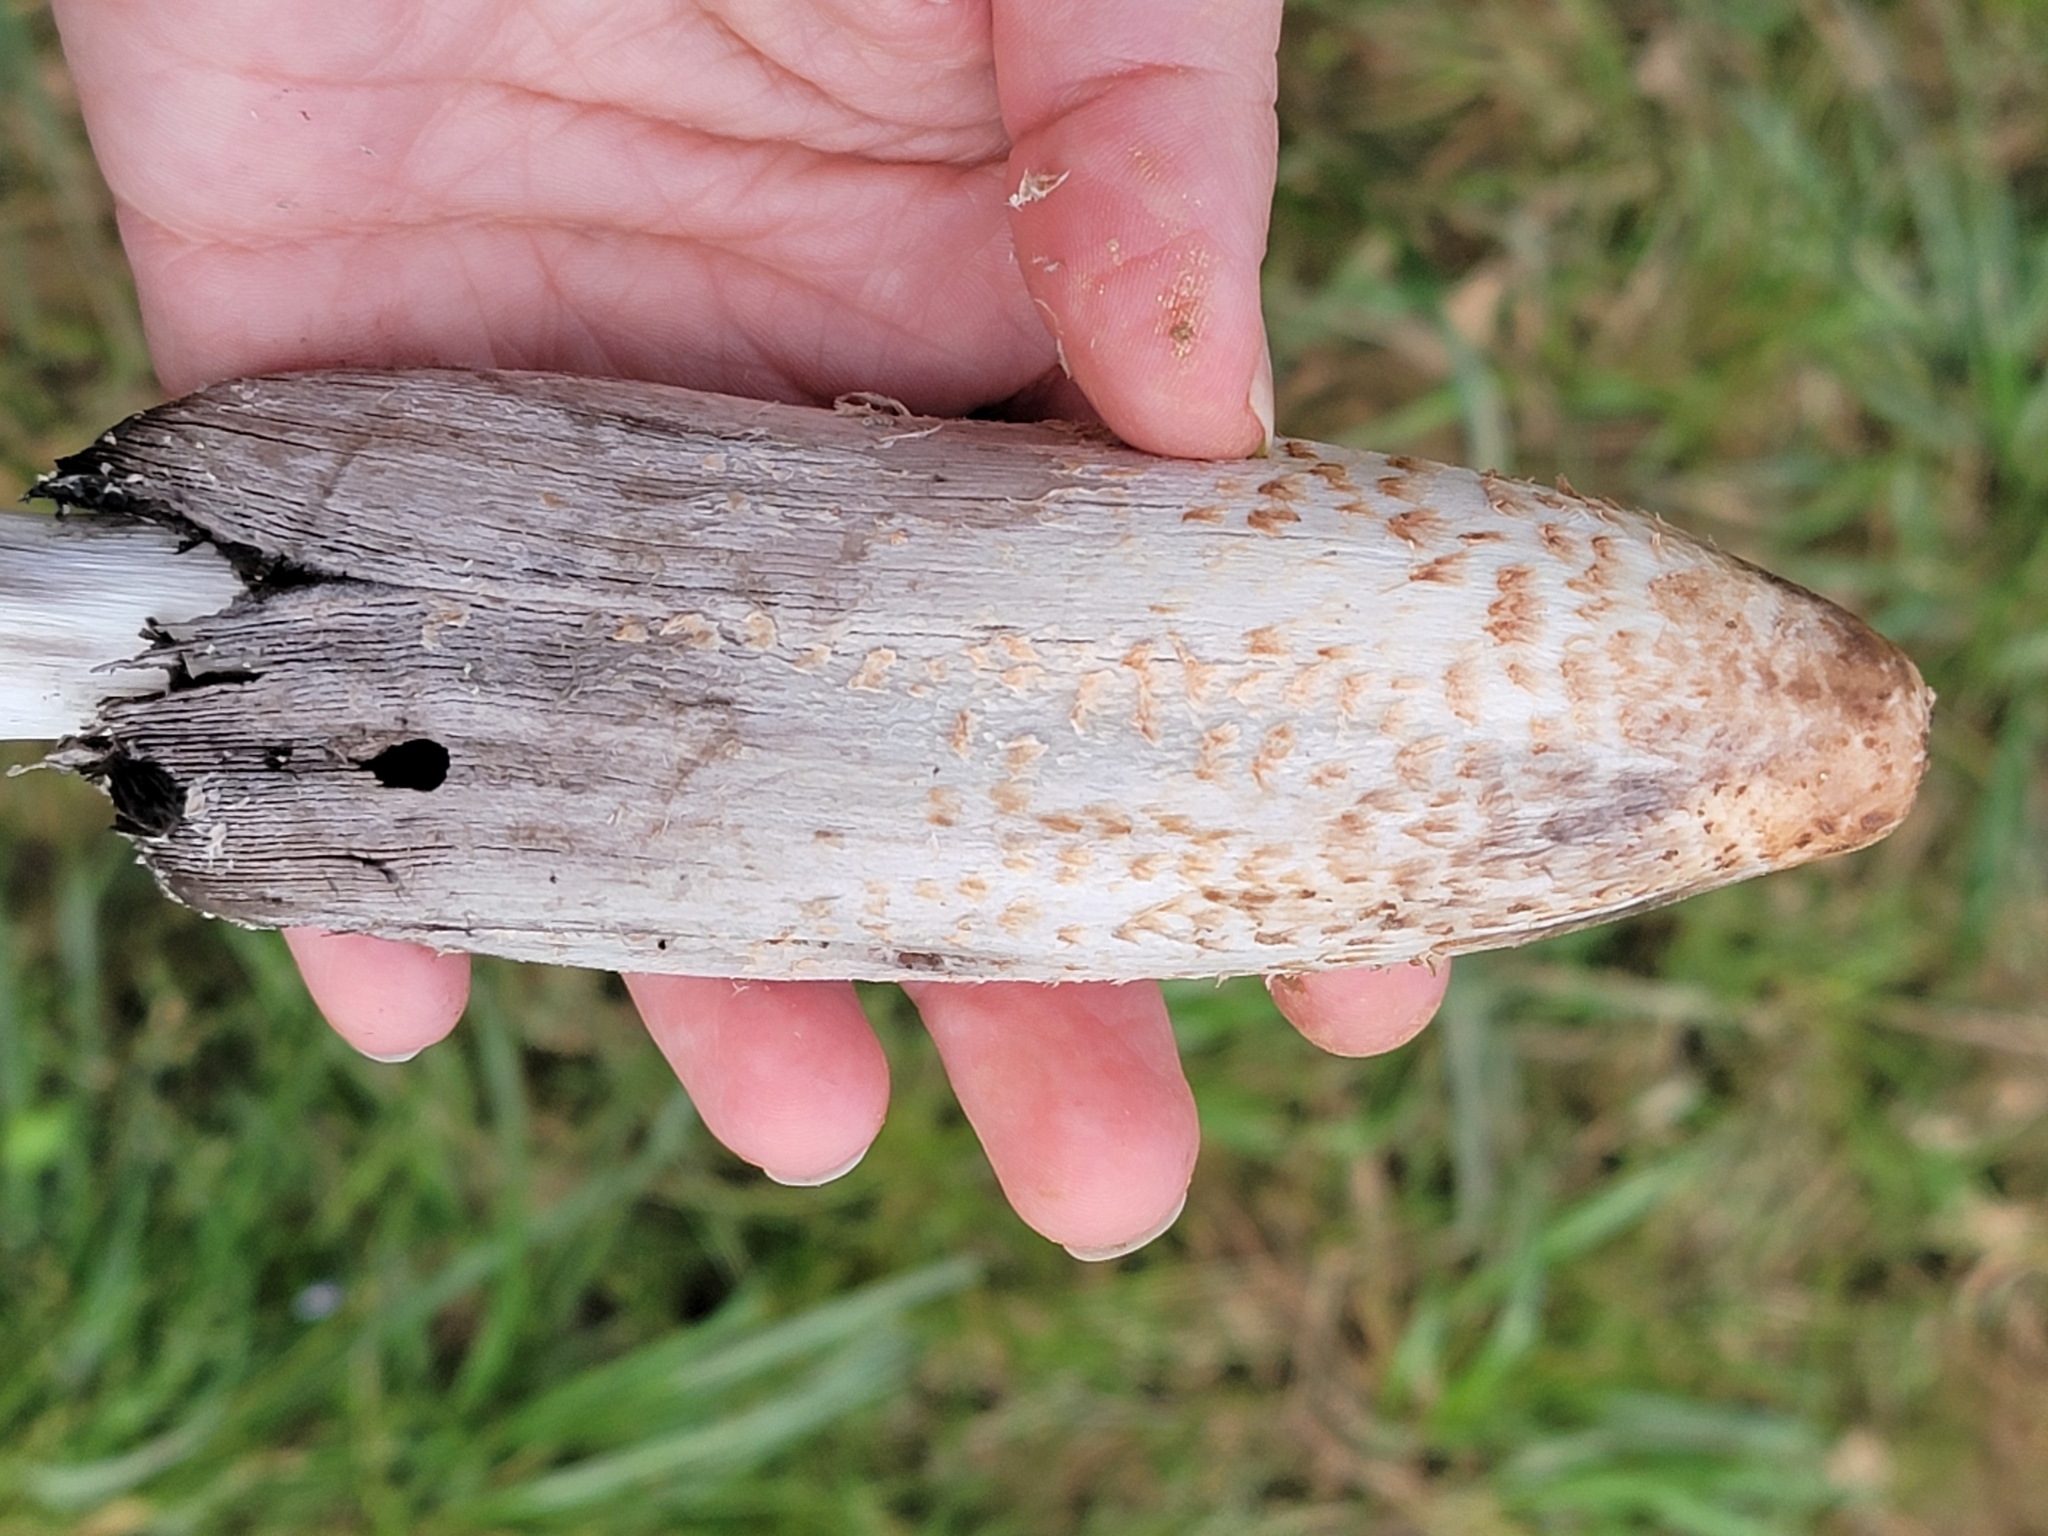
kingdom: Fungi
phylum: Basidiomycota
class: Agaricomycetes
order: Agaricales
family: Agaricaceae
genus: Coprinus
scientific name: Coprinus comatus
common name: Lawyer's wig
